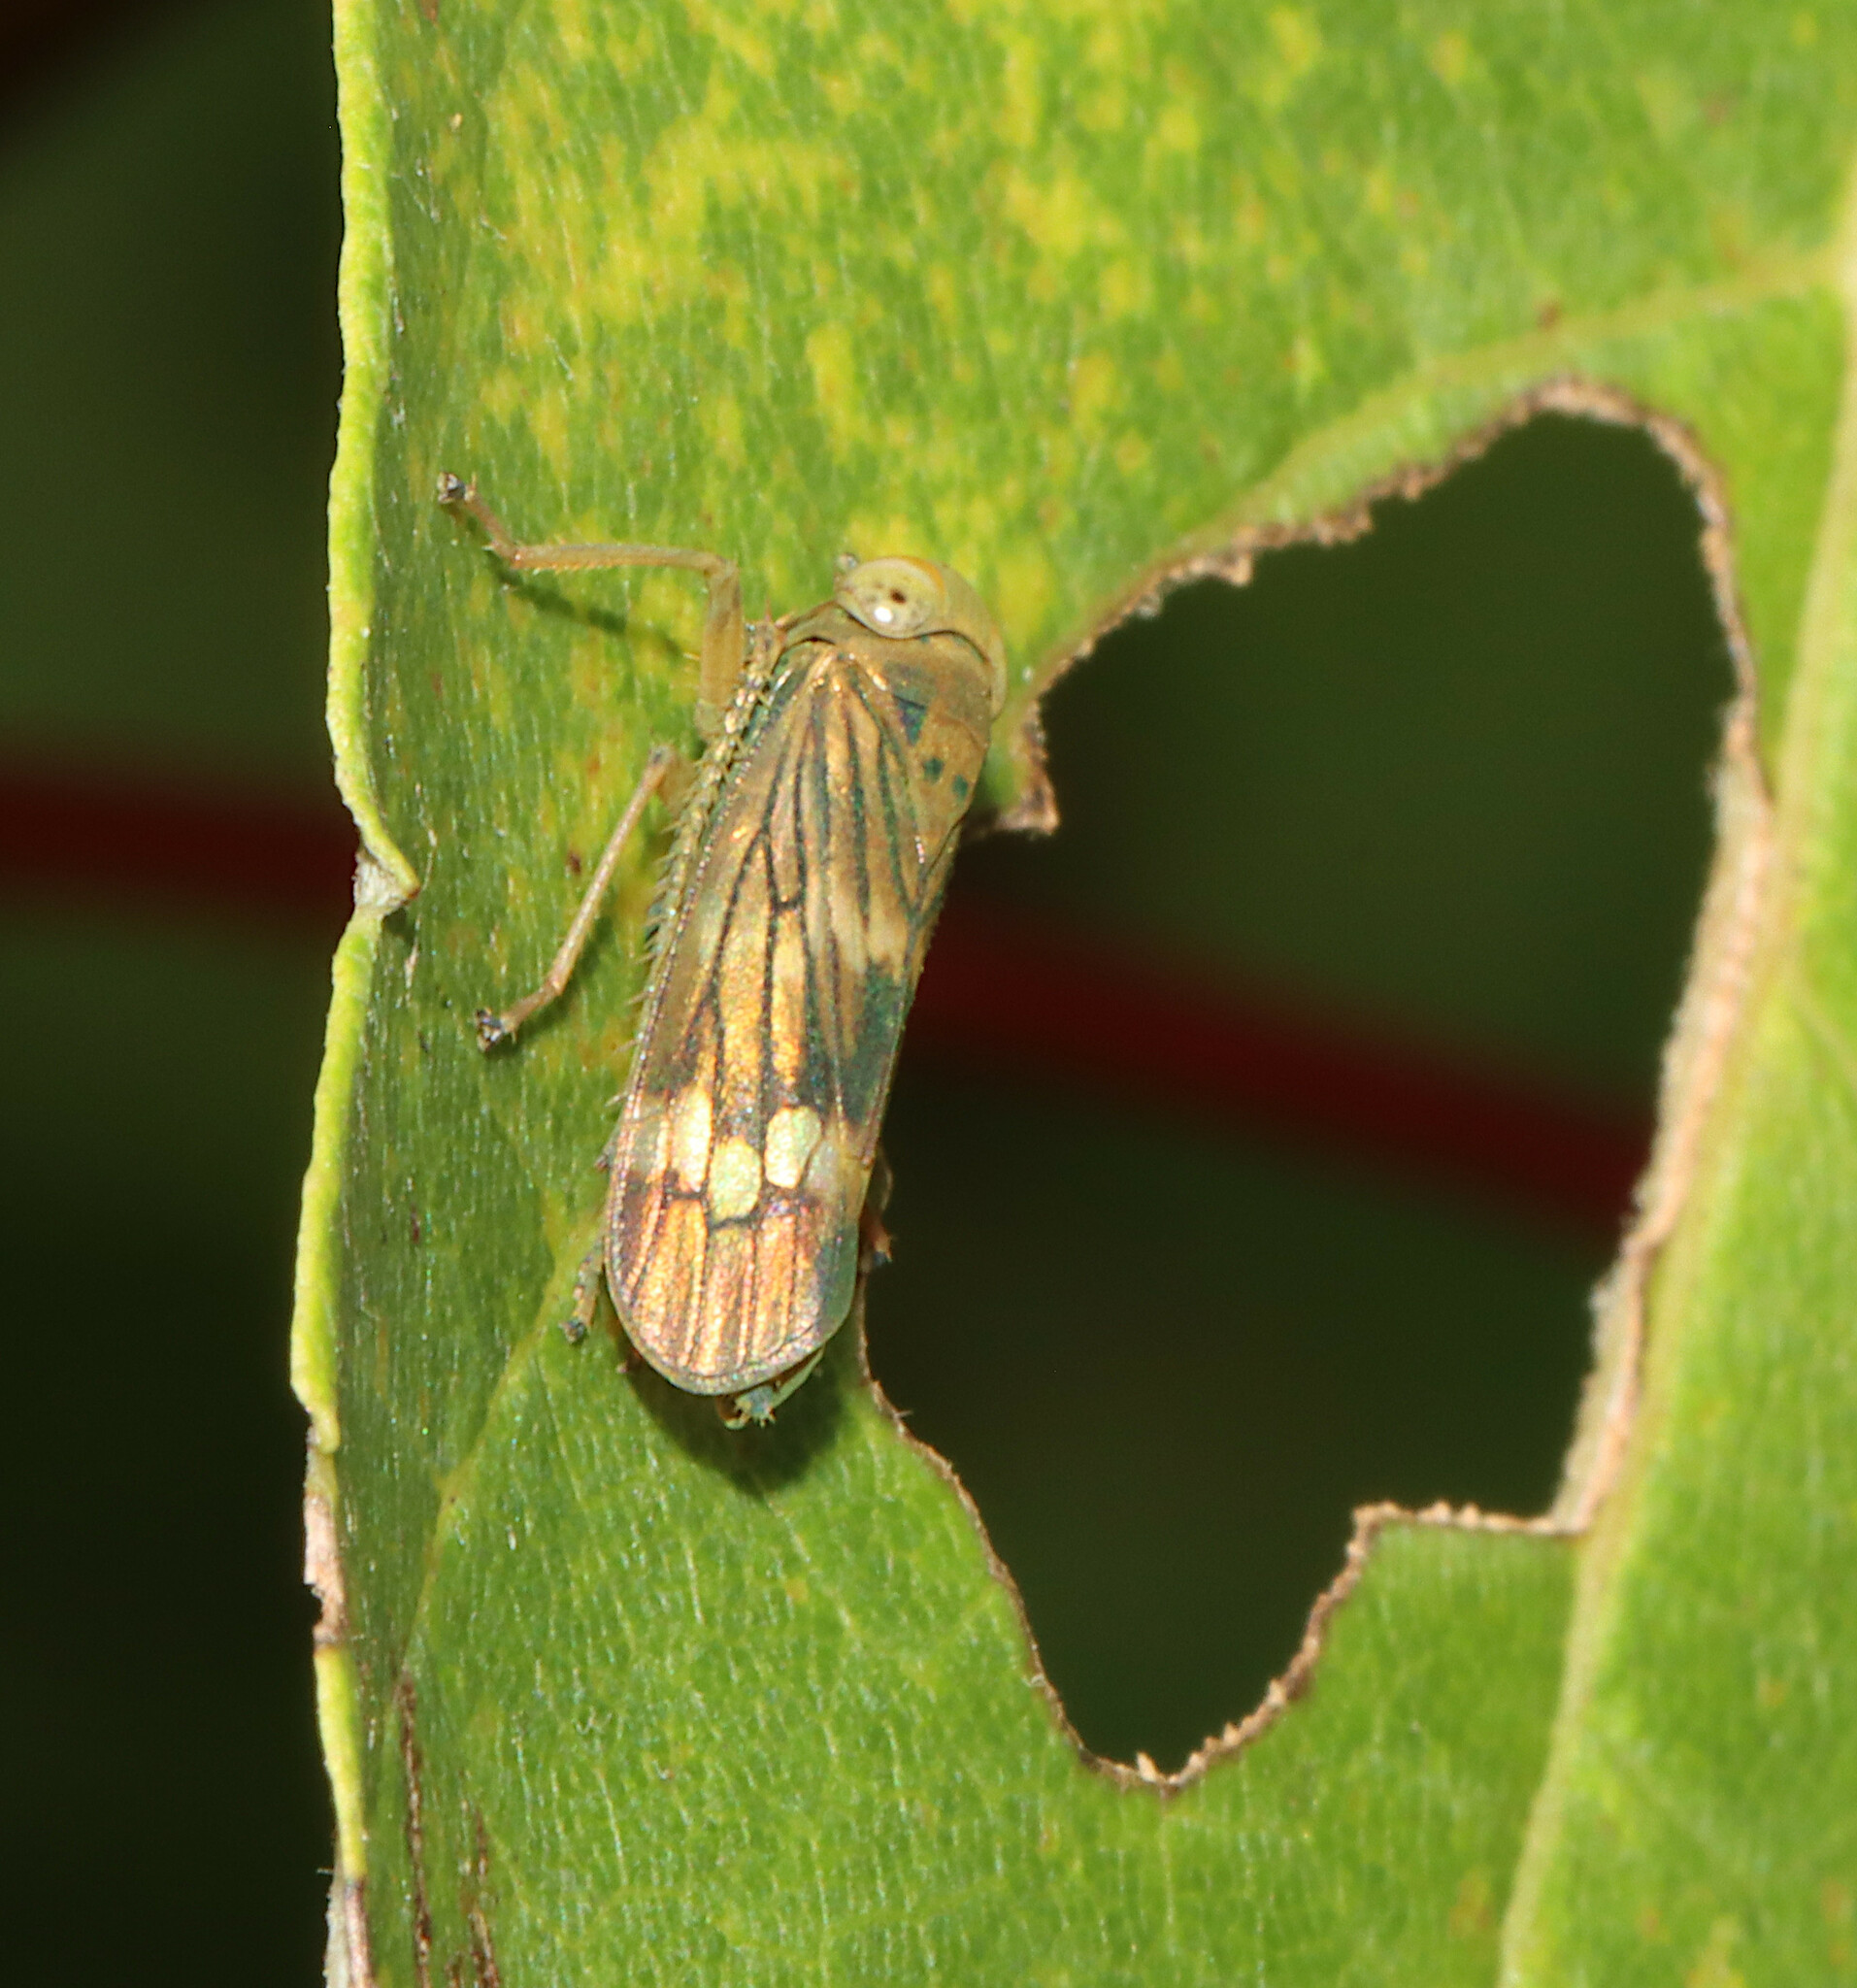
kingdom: Animalia
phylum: Arthropoda
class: Insecta
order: Hemiptera
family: Cicadellidae
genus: Jikradia
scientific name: Jikradia olitoria
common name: Coppery leafhopper
